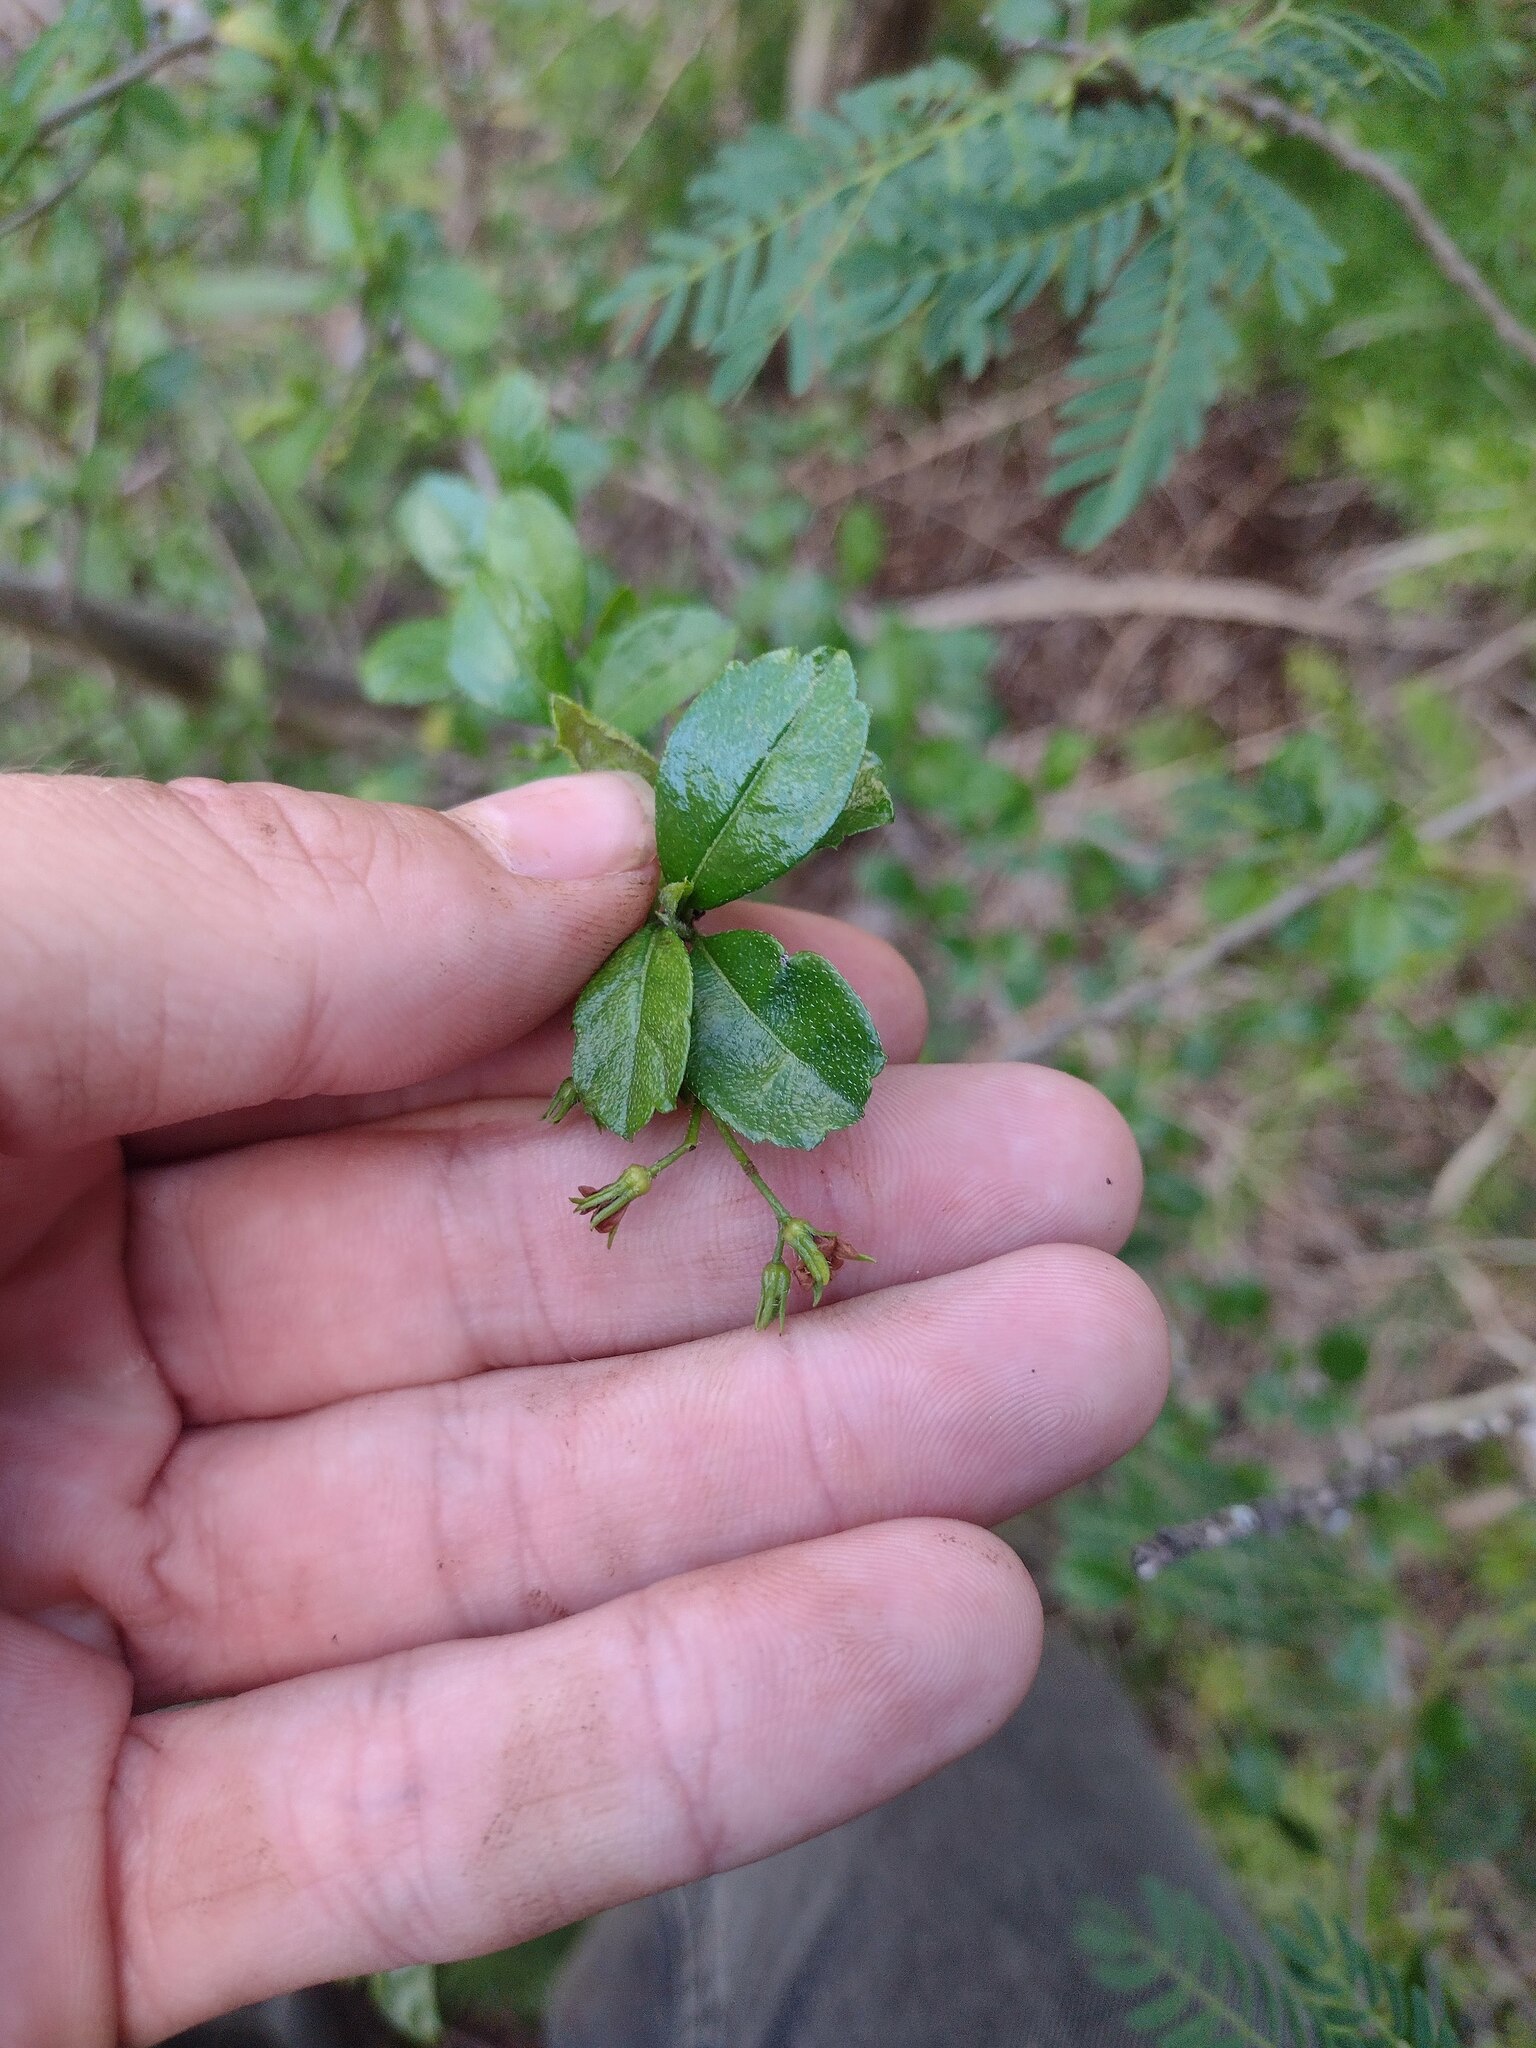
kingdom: Plantae
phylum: Tracheophyta
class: Magnoliopsida
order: Boraginales
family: Ehretiaceae
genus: Ehretia
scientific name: Ehretia microphylla
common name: Fukien-tea
